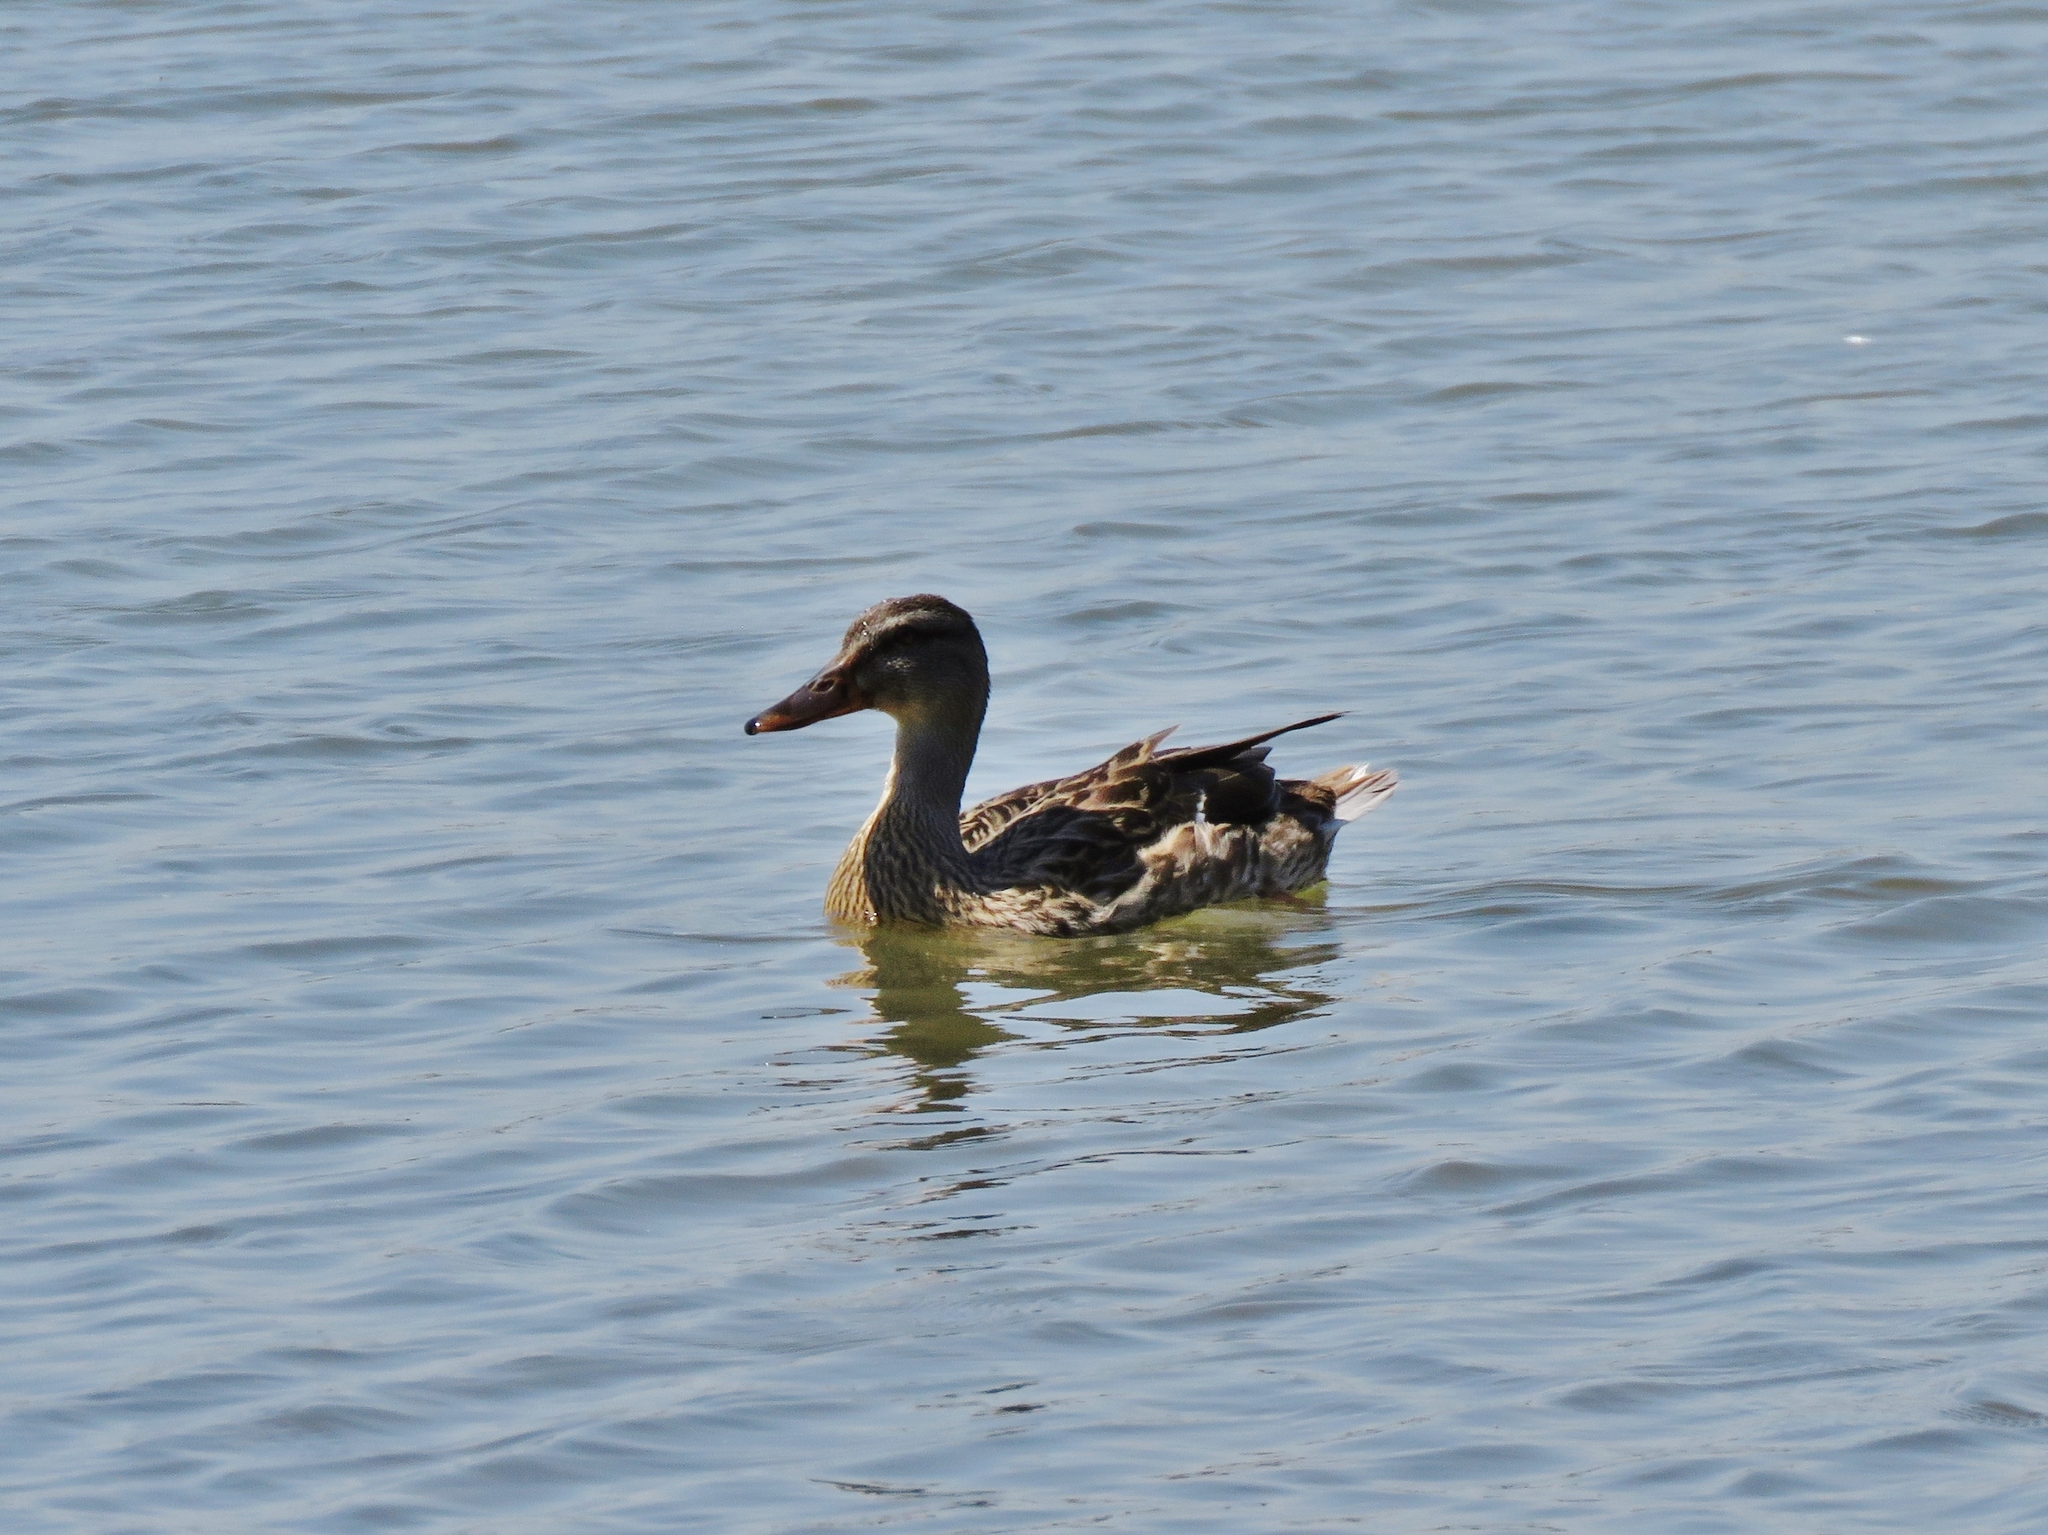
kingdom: Animalia
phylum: Chordata
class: Aves
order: Anseriformes
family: Anatidae
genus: Anas
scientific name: Anas platyrhynchos
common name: Mallard
